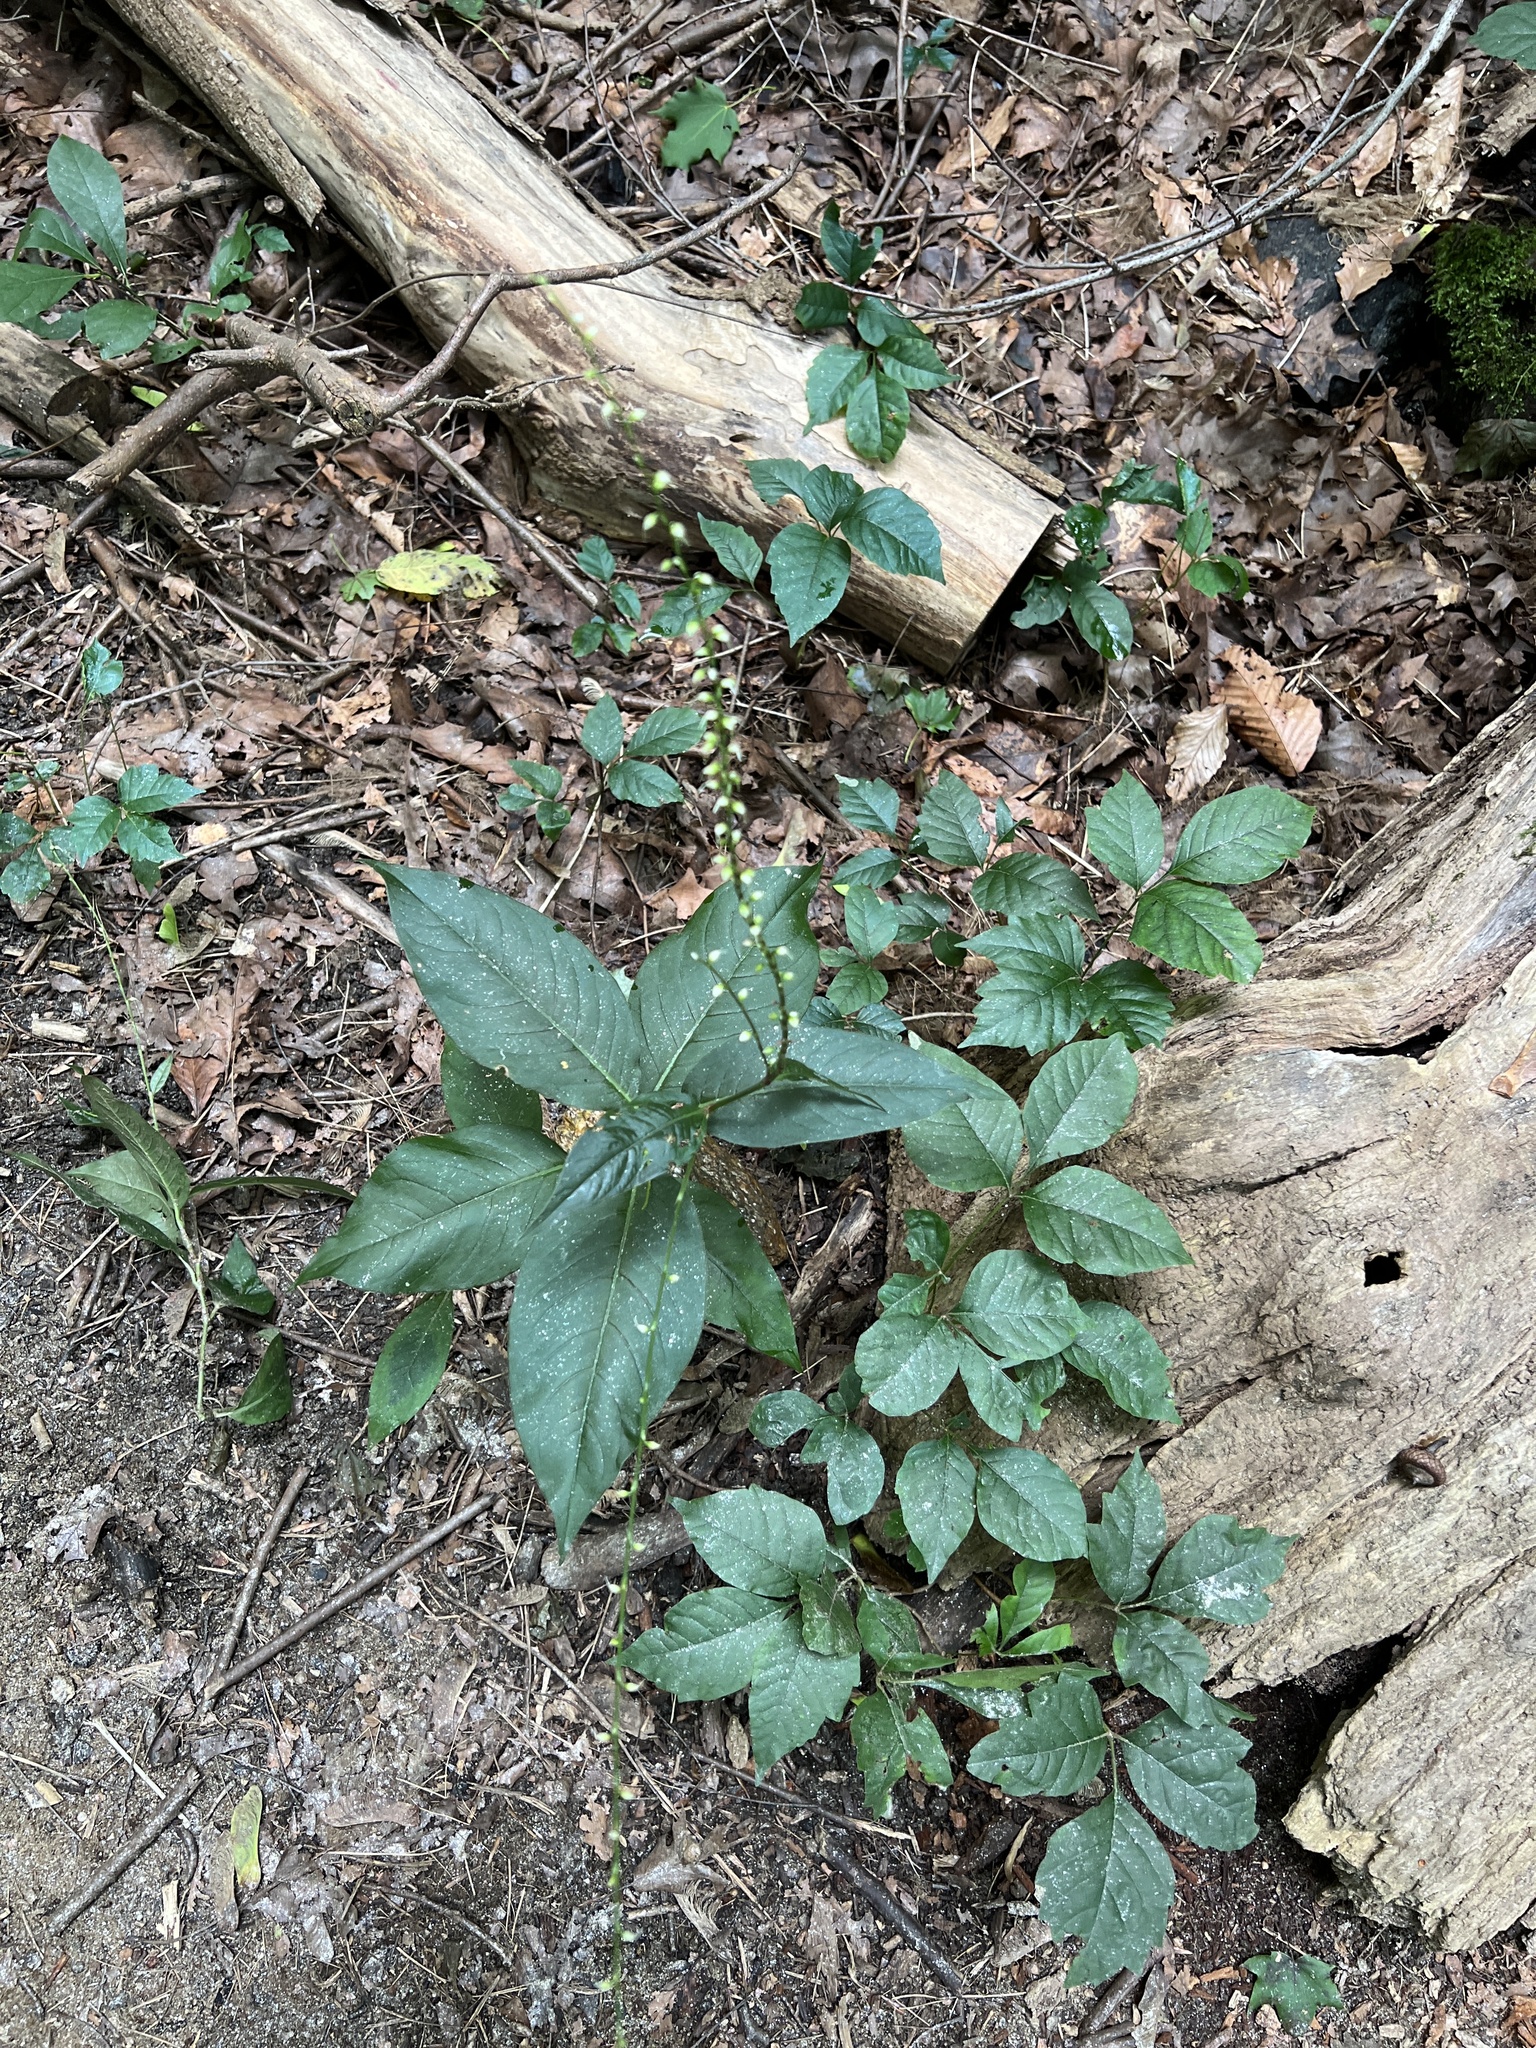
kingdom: Plantae
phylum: Tracheophyta
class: Magnoliopsida
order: Caryophyllales
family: Polygonaceae
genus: Persicaria
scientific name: Persicaria virginiana
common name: Jumpseed
